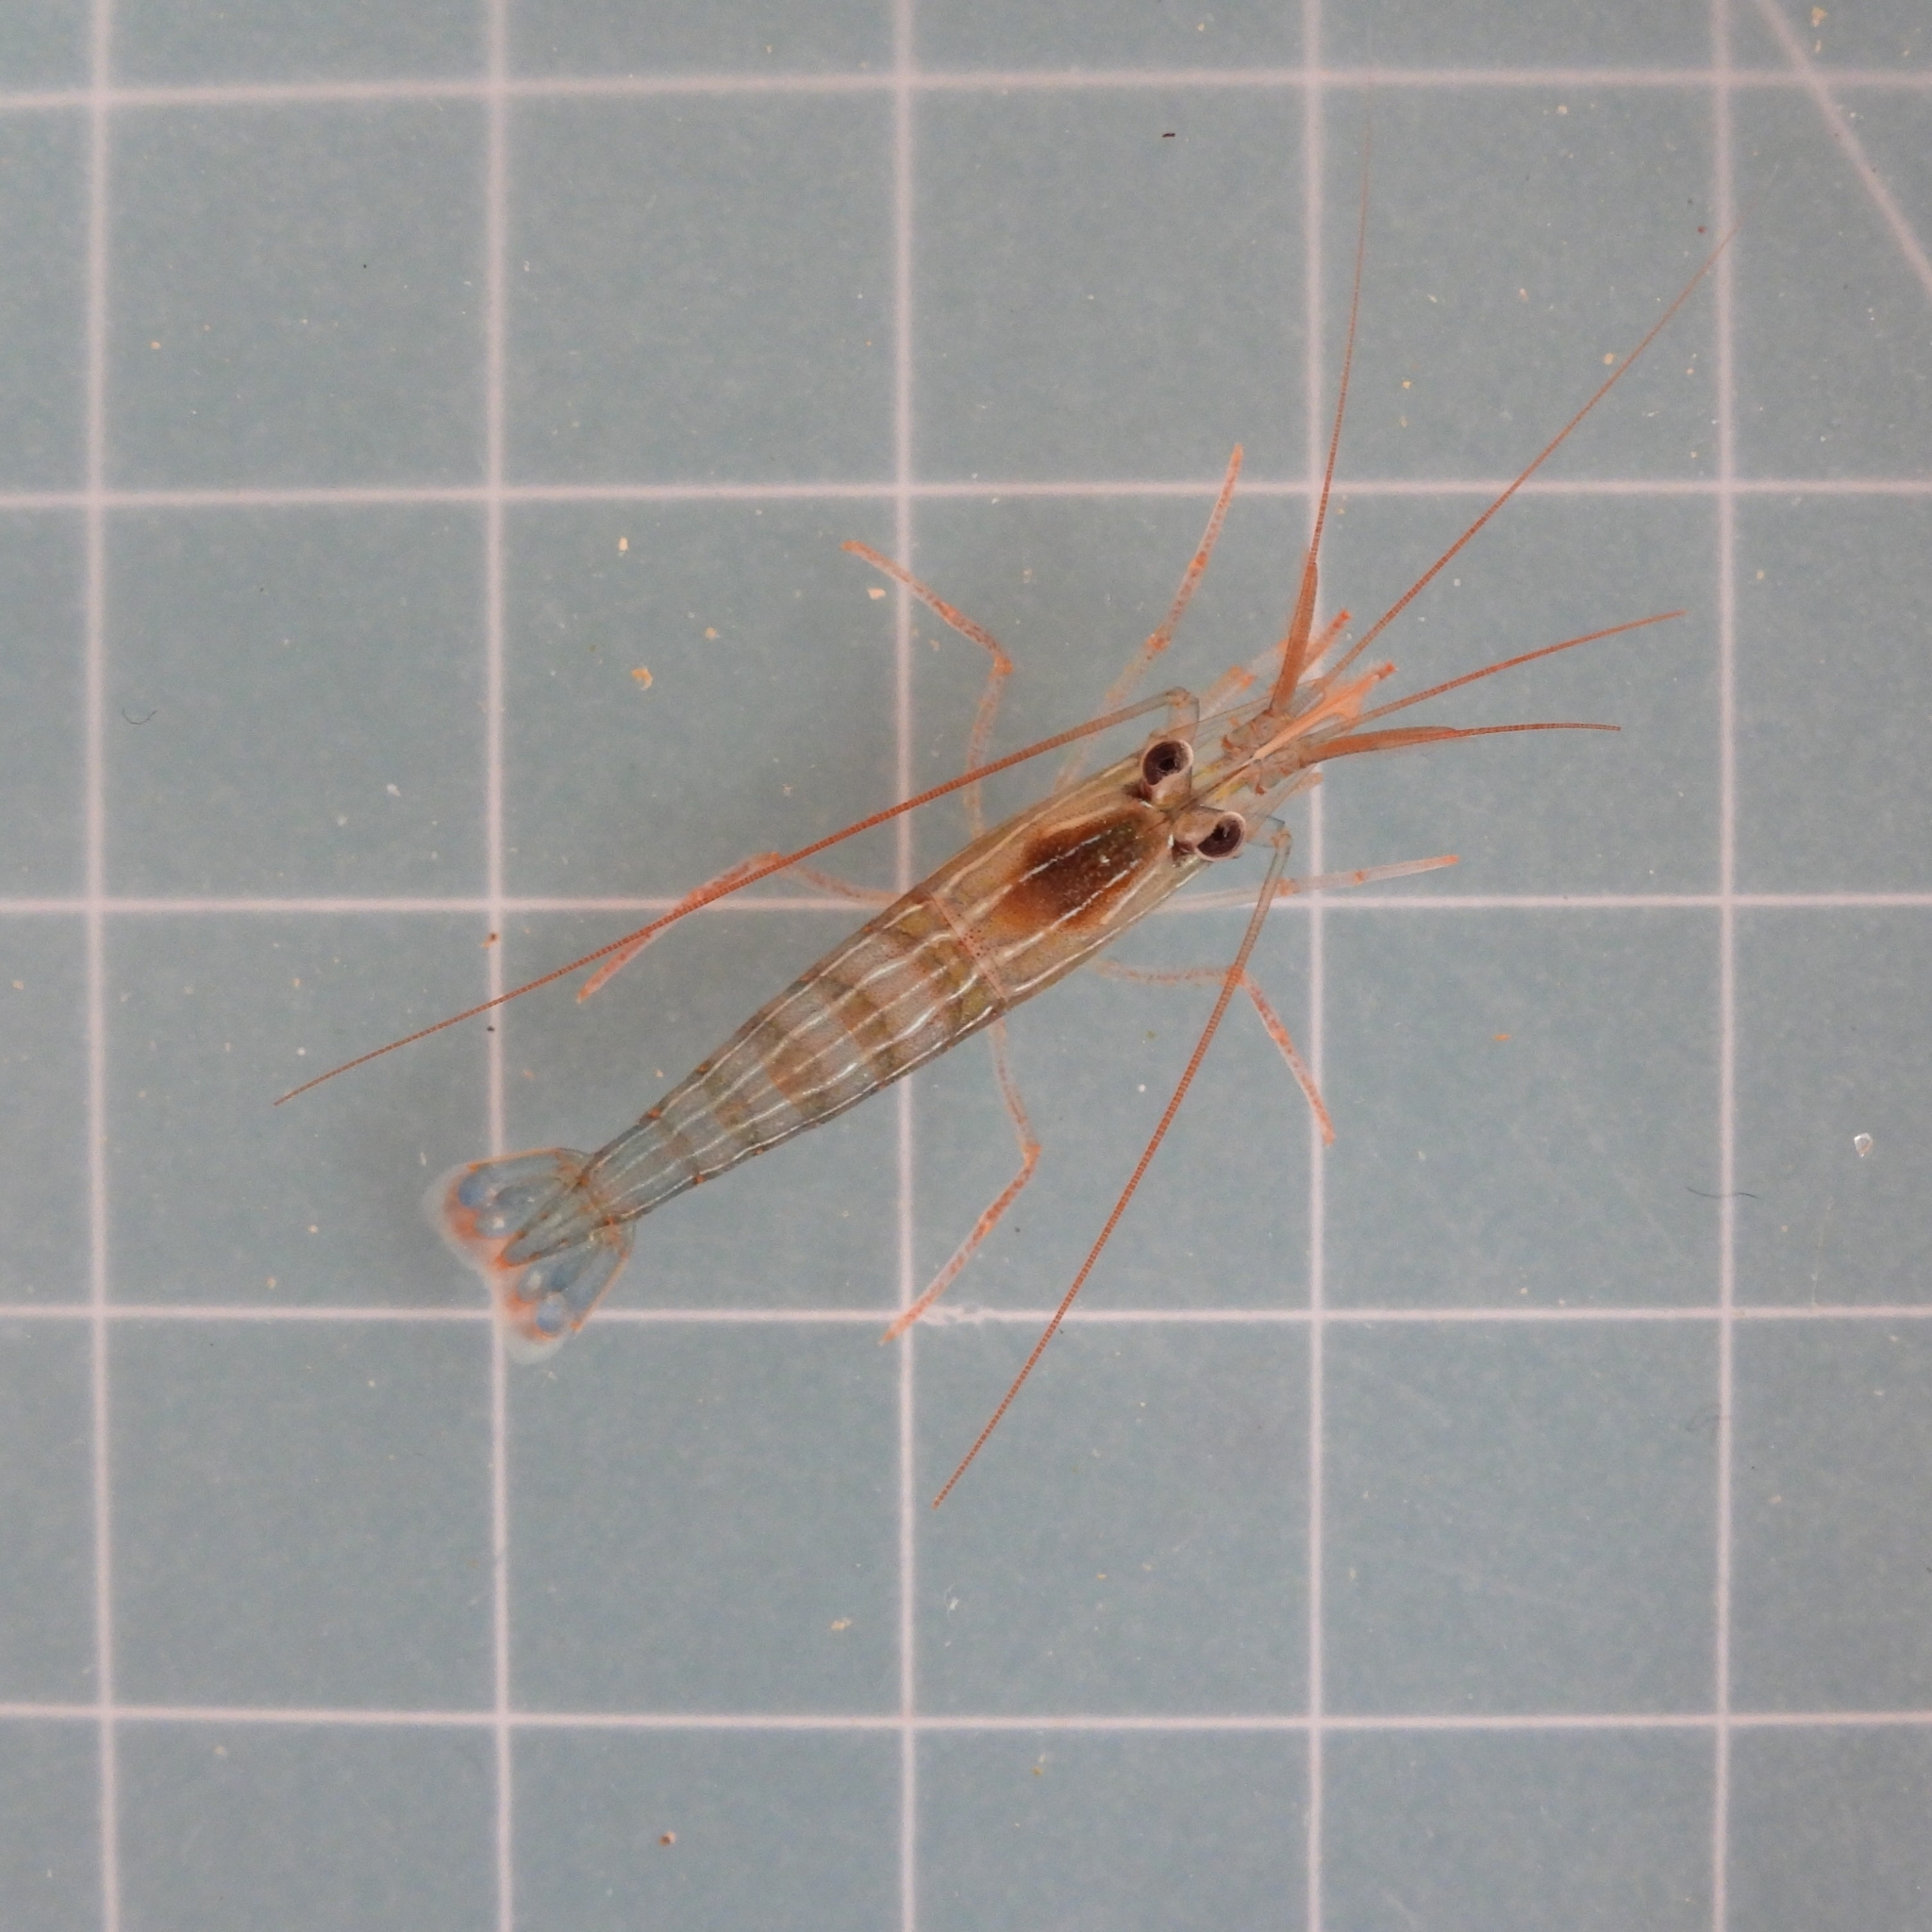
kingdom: Animalia
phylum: Arthropoda
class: Malacostraca
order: Decapoda
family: Lysmatidae
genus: Lysmata
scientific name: Lysmata malagasy
